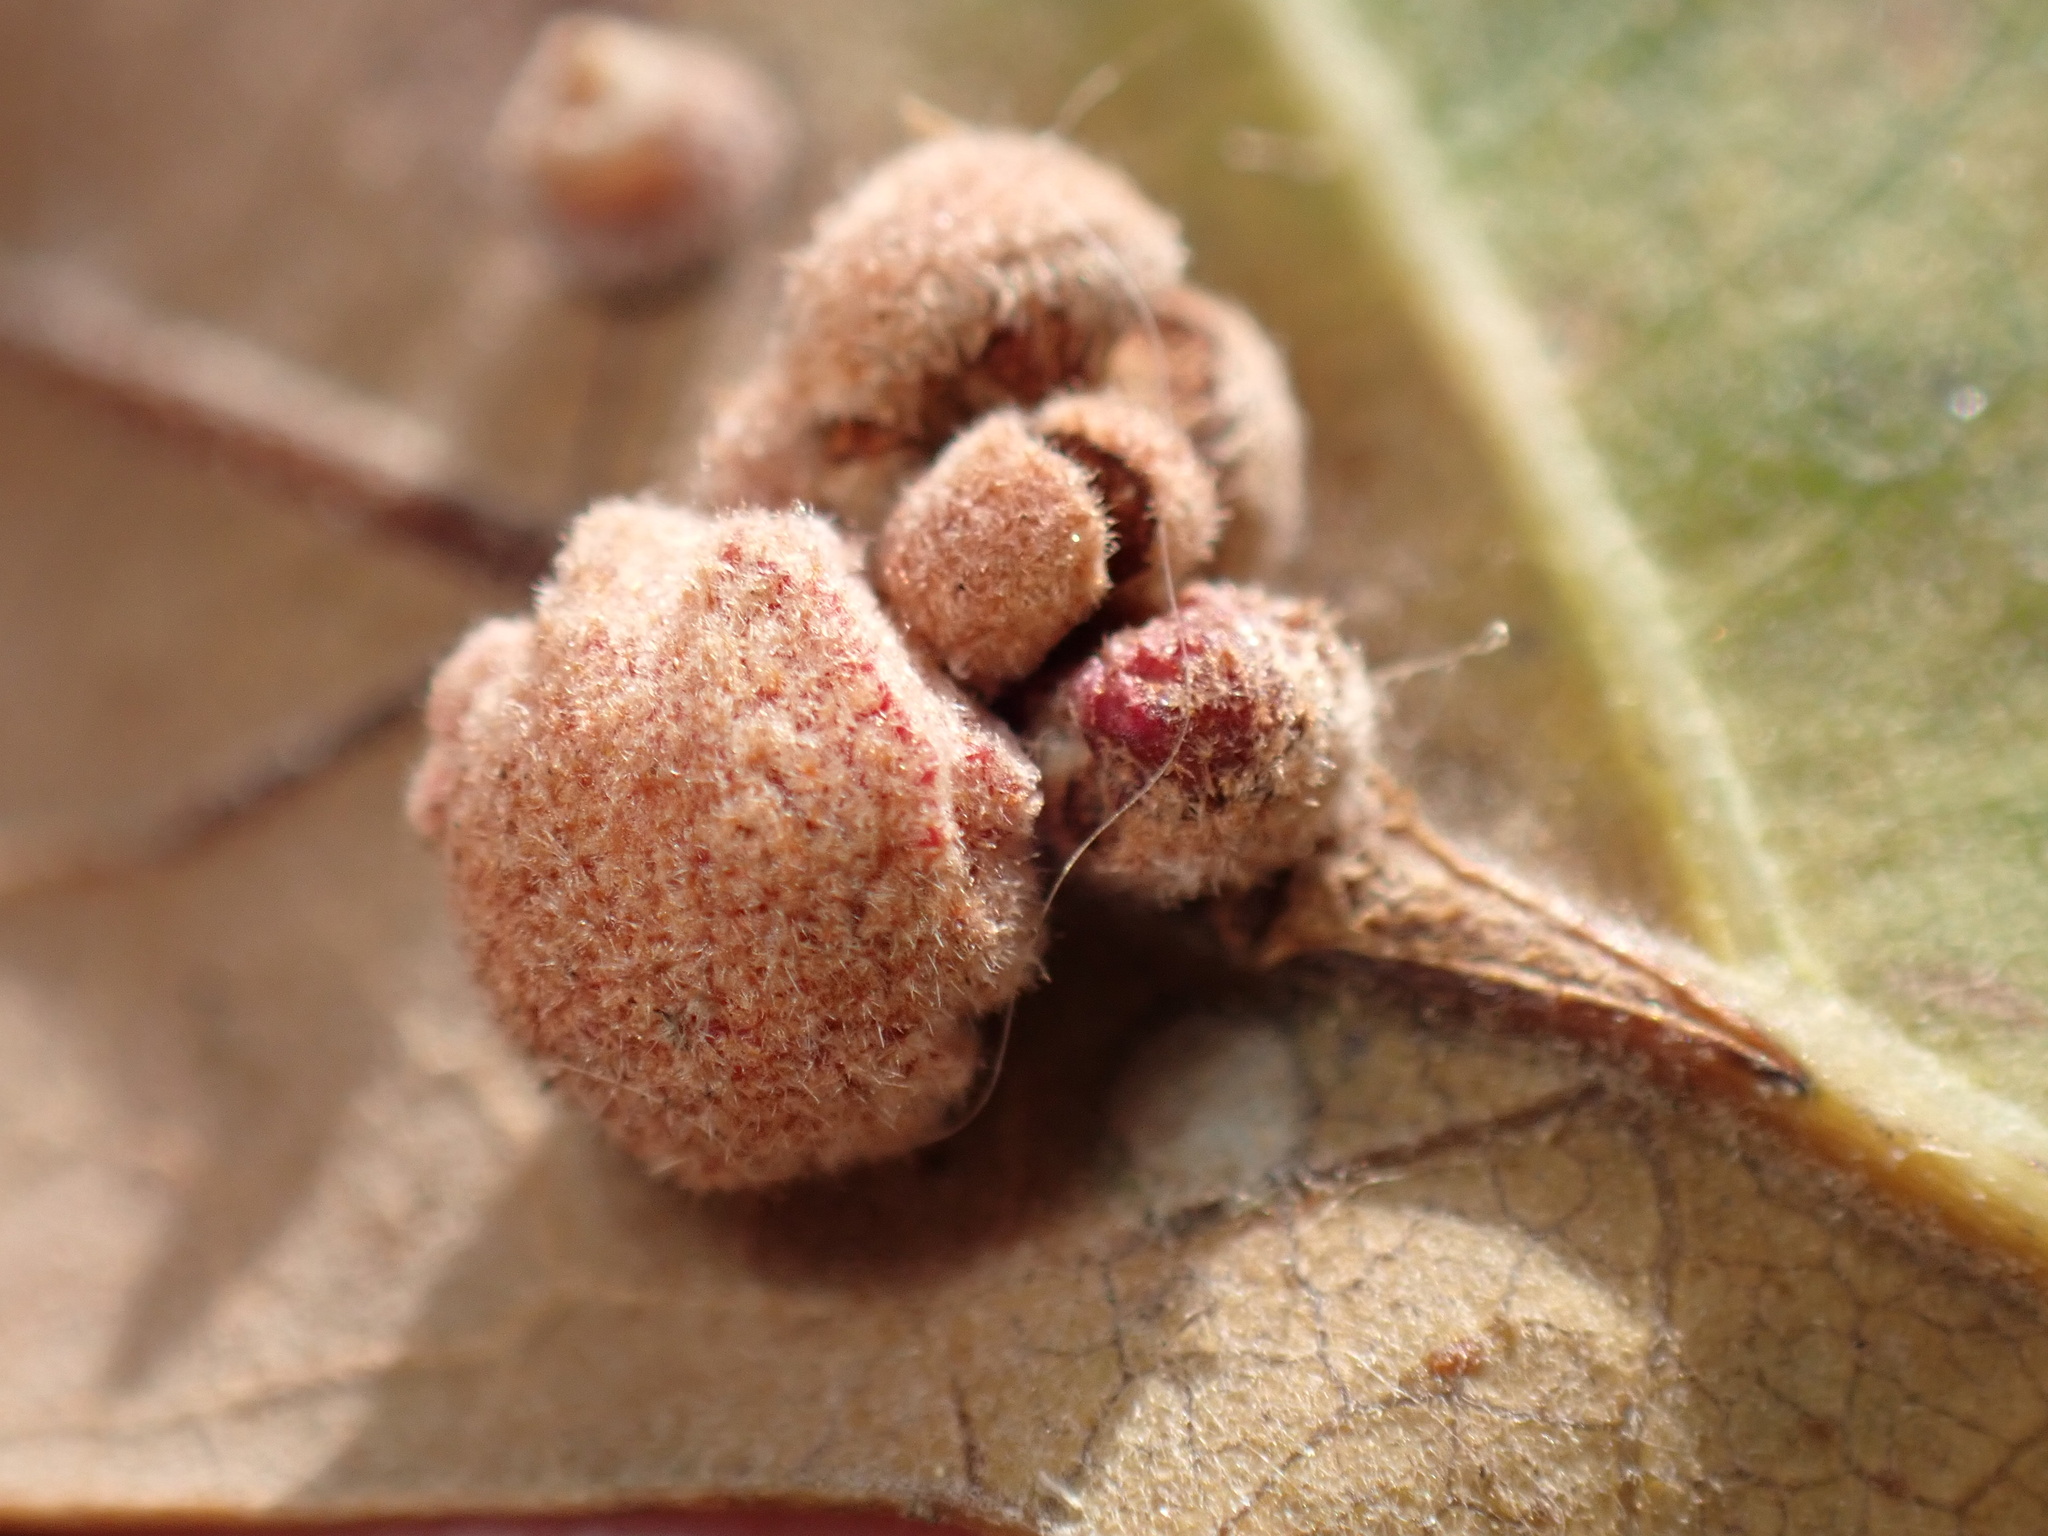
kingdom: Animalia
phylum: Arthropoda
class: Insecta
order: Hymenoptera
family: Cynipidae
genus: Andricus
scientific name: Andricus
